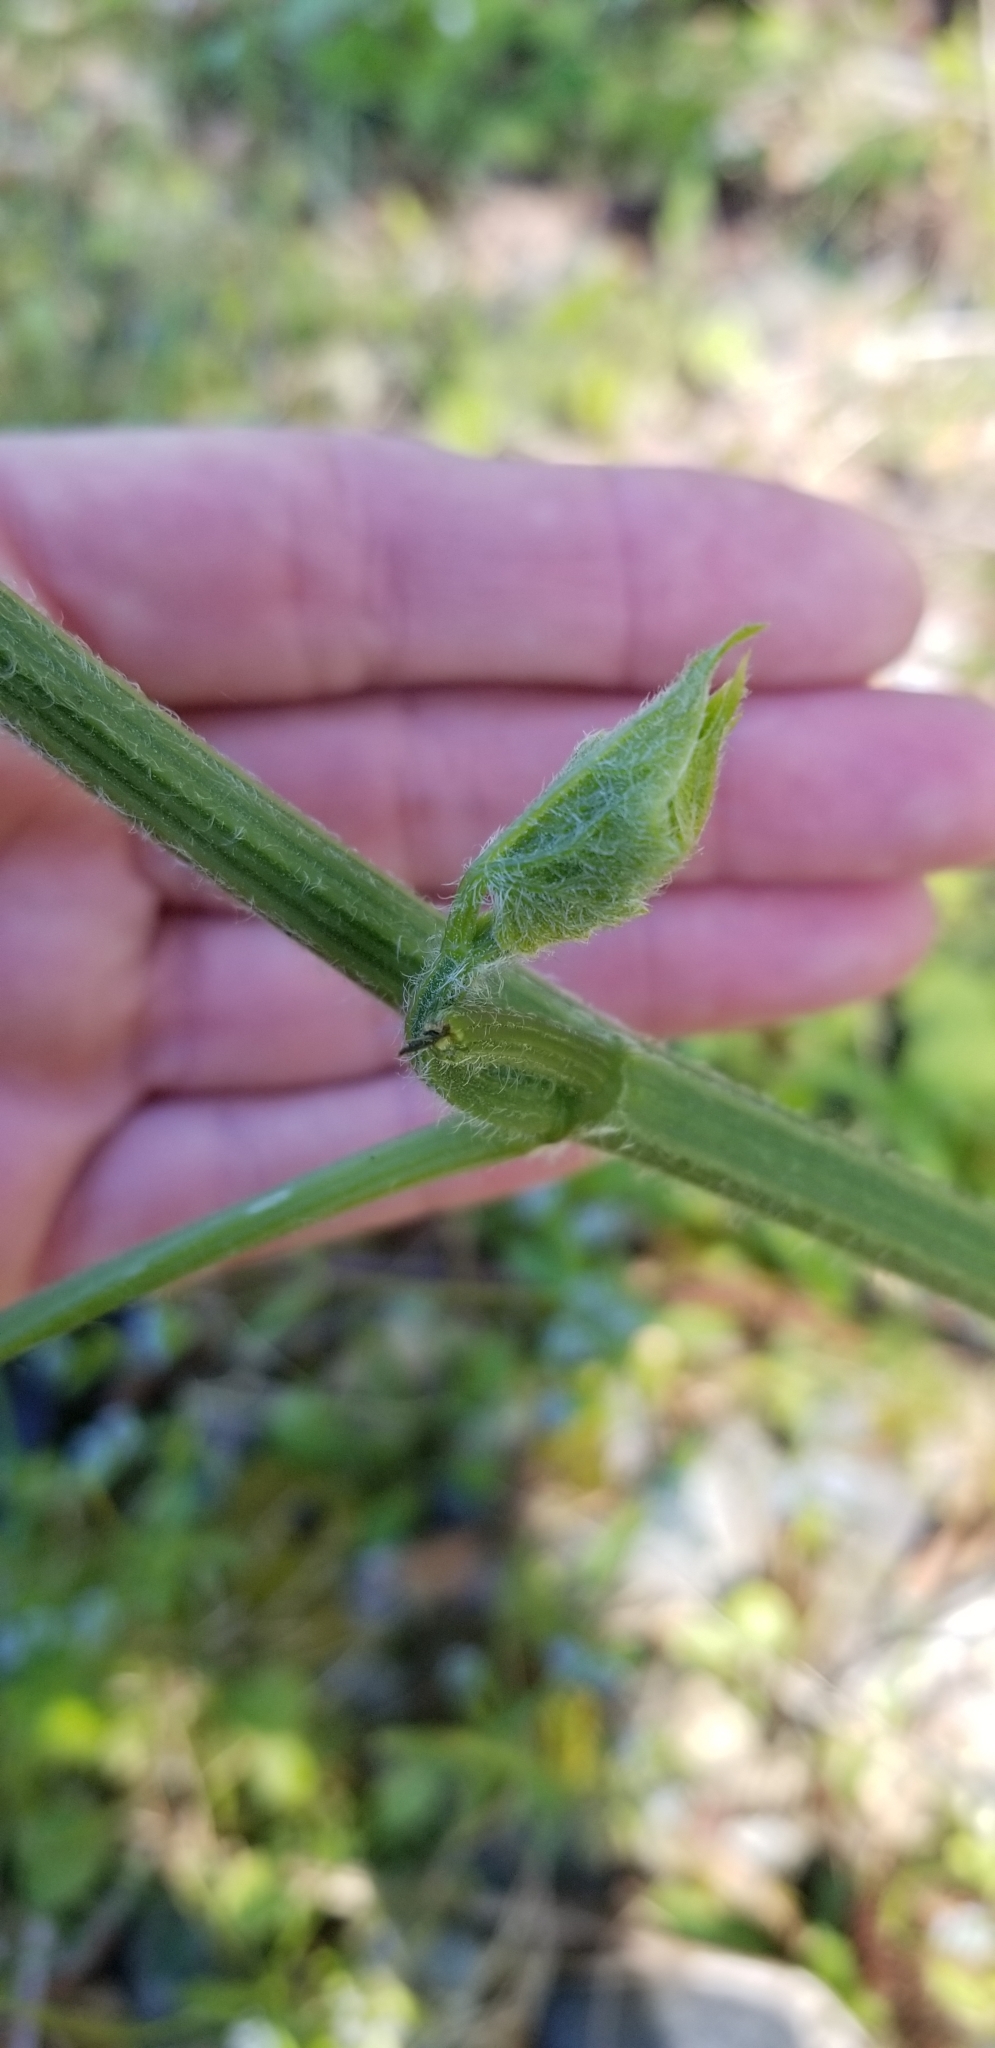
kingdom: Plantae
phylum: Tracheophyta
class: Magnoliopsida
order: Cucurbitales
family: Cucurbitaceae
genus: Marah
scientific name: Marah oregana
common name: Coastal manroot
